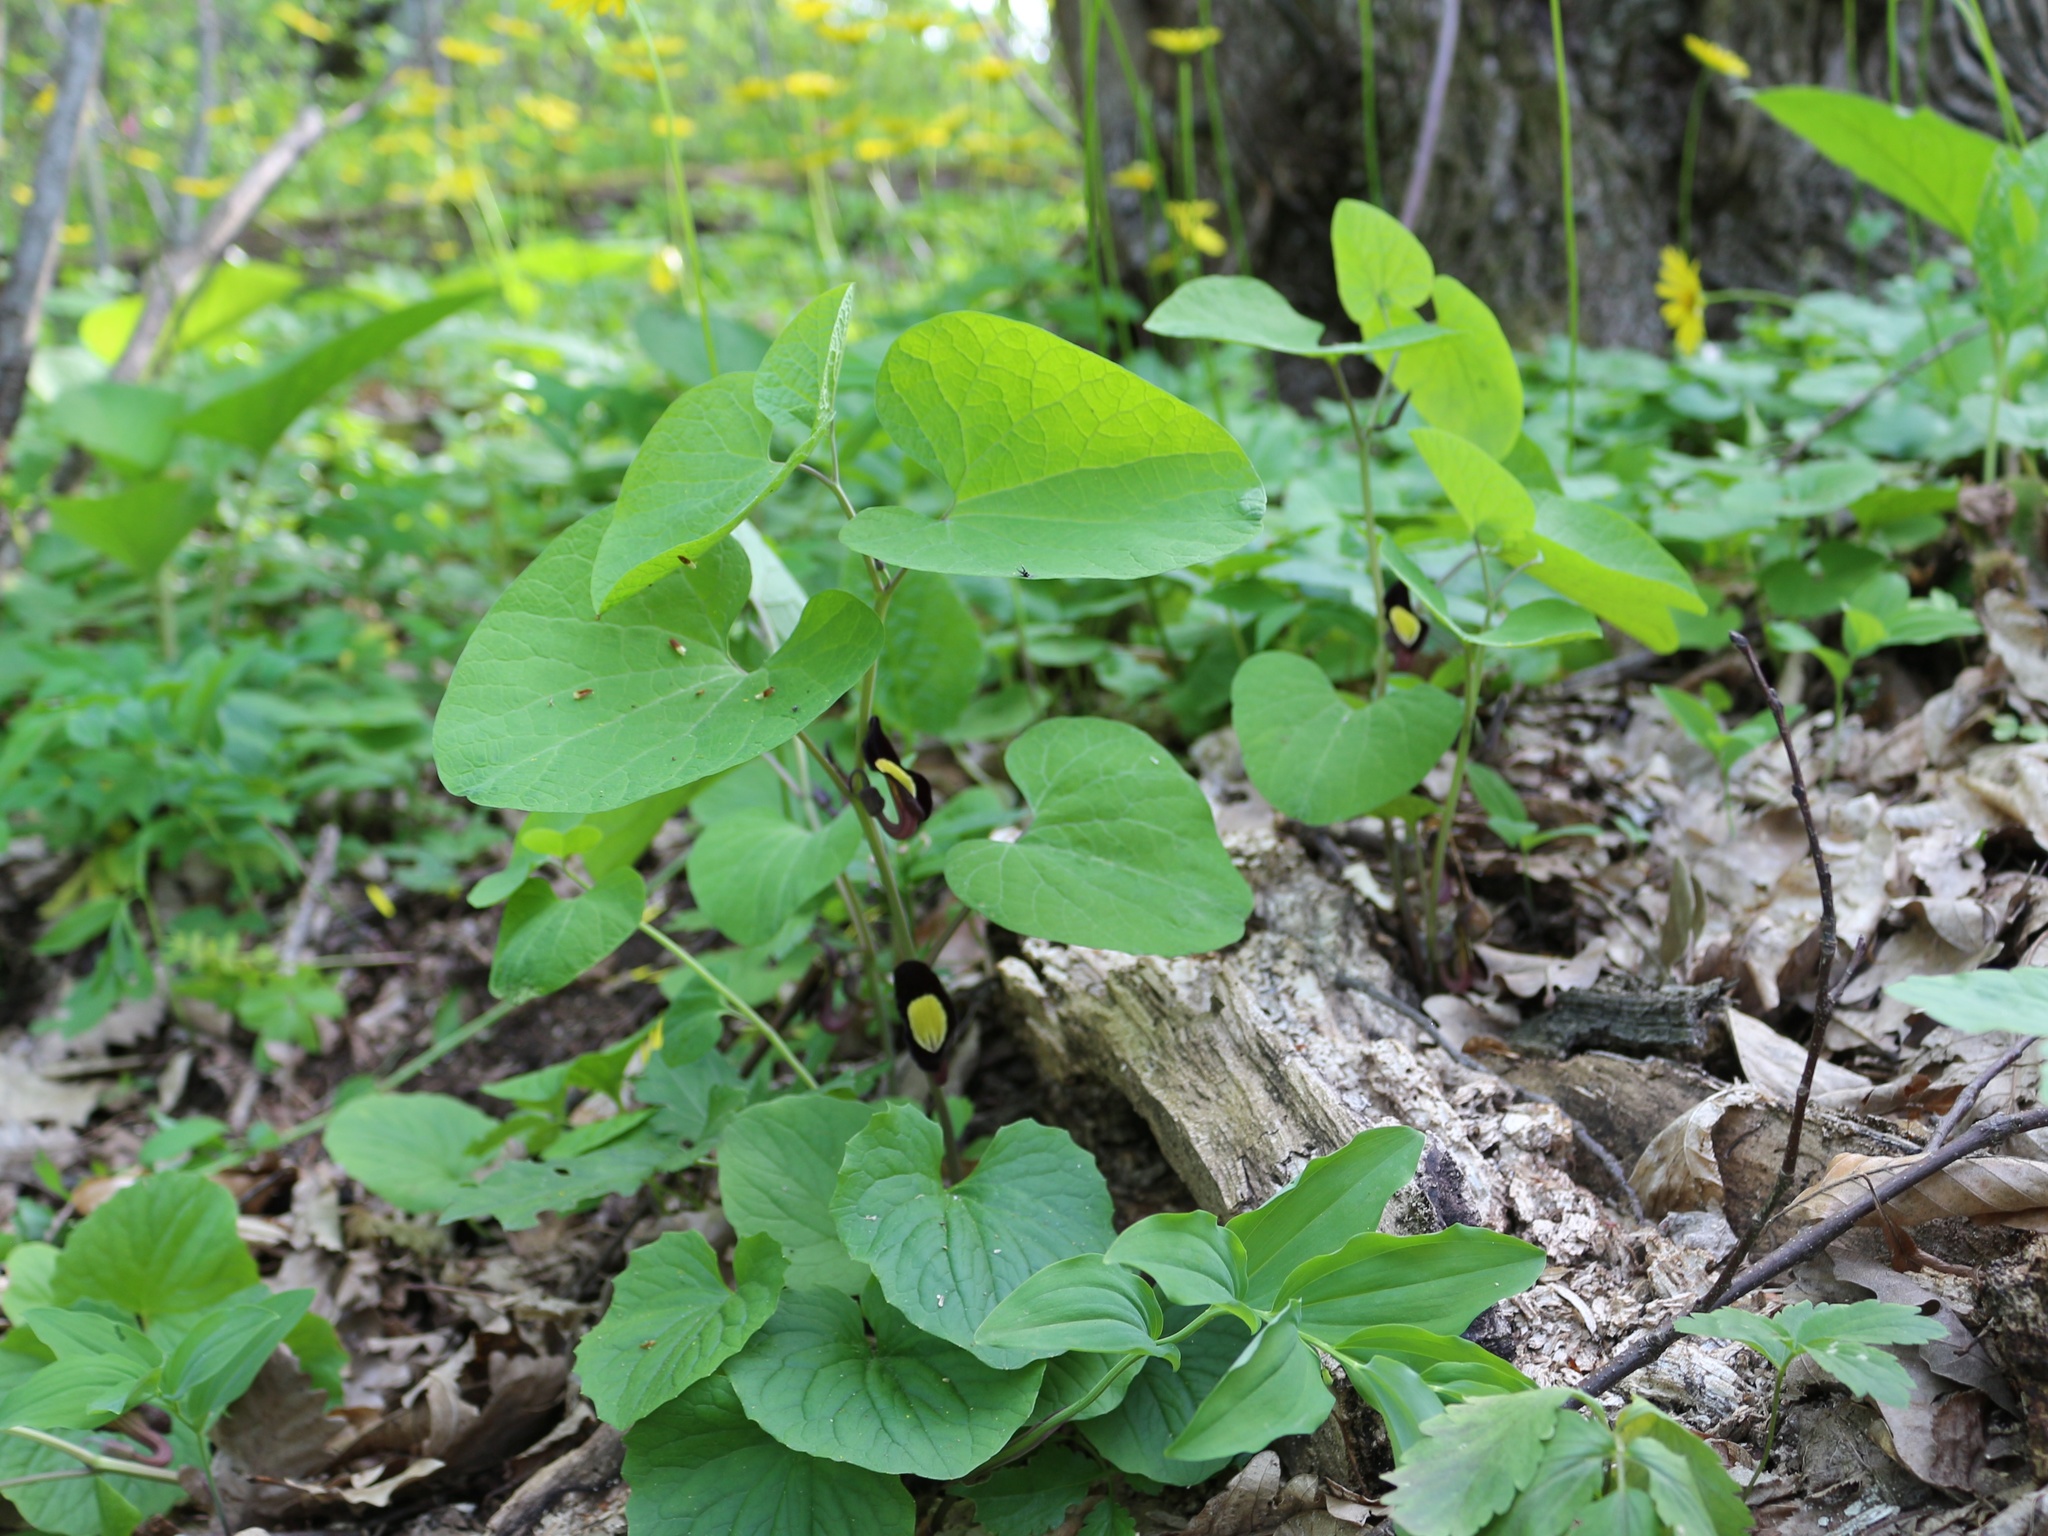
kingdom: Plantae
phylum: Tracheophyta
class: Magnoliopsida
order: Piperales
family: Aristolochiaceae
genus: Aristolochia
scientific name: Aristolochia steupii
